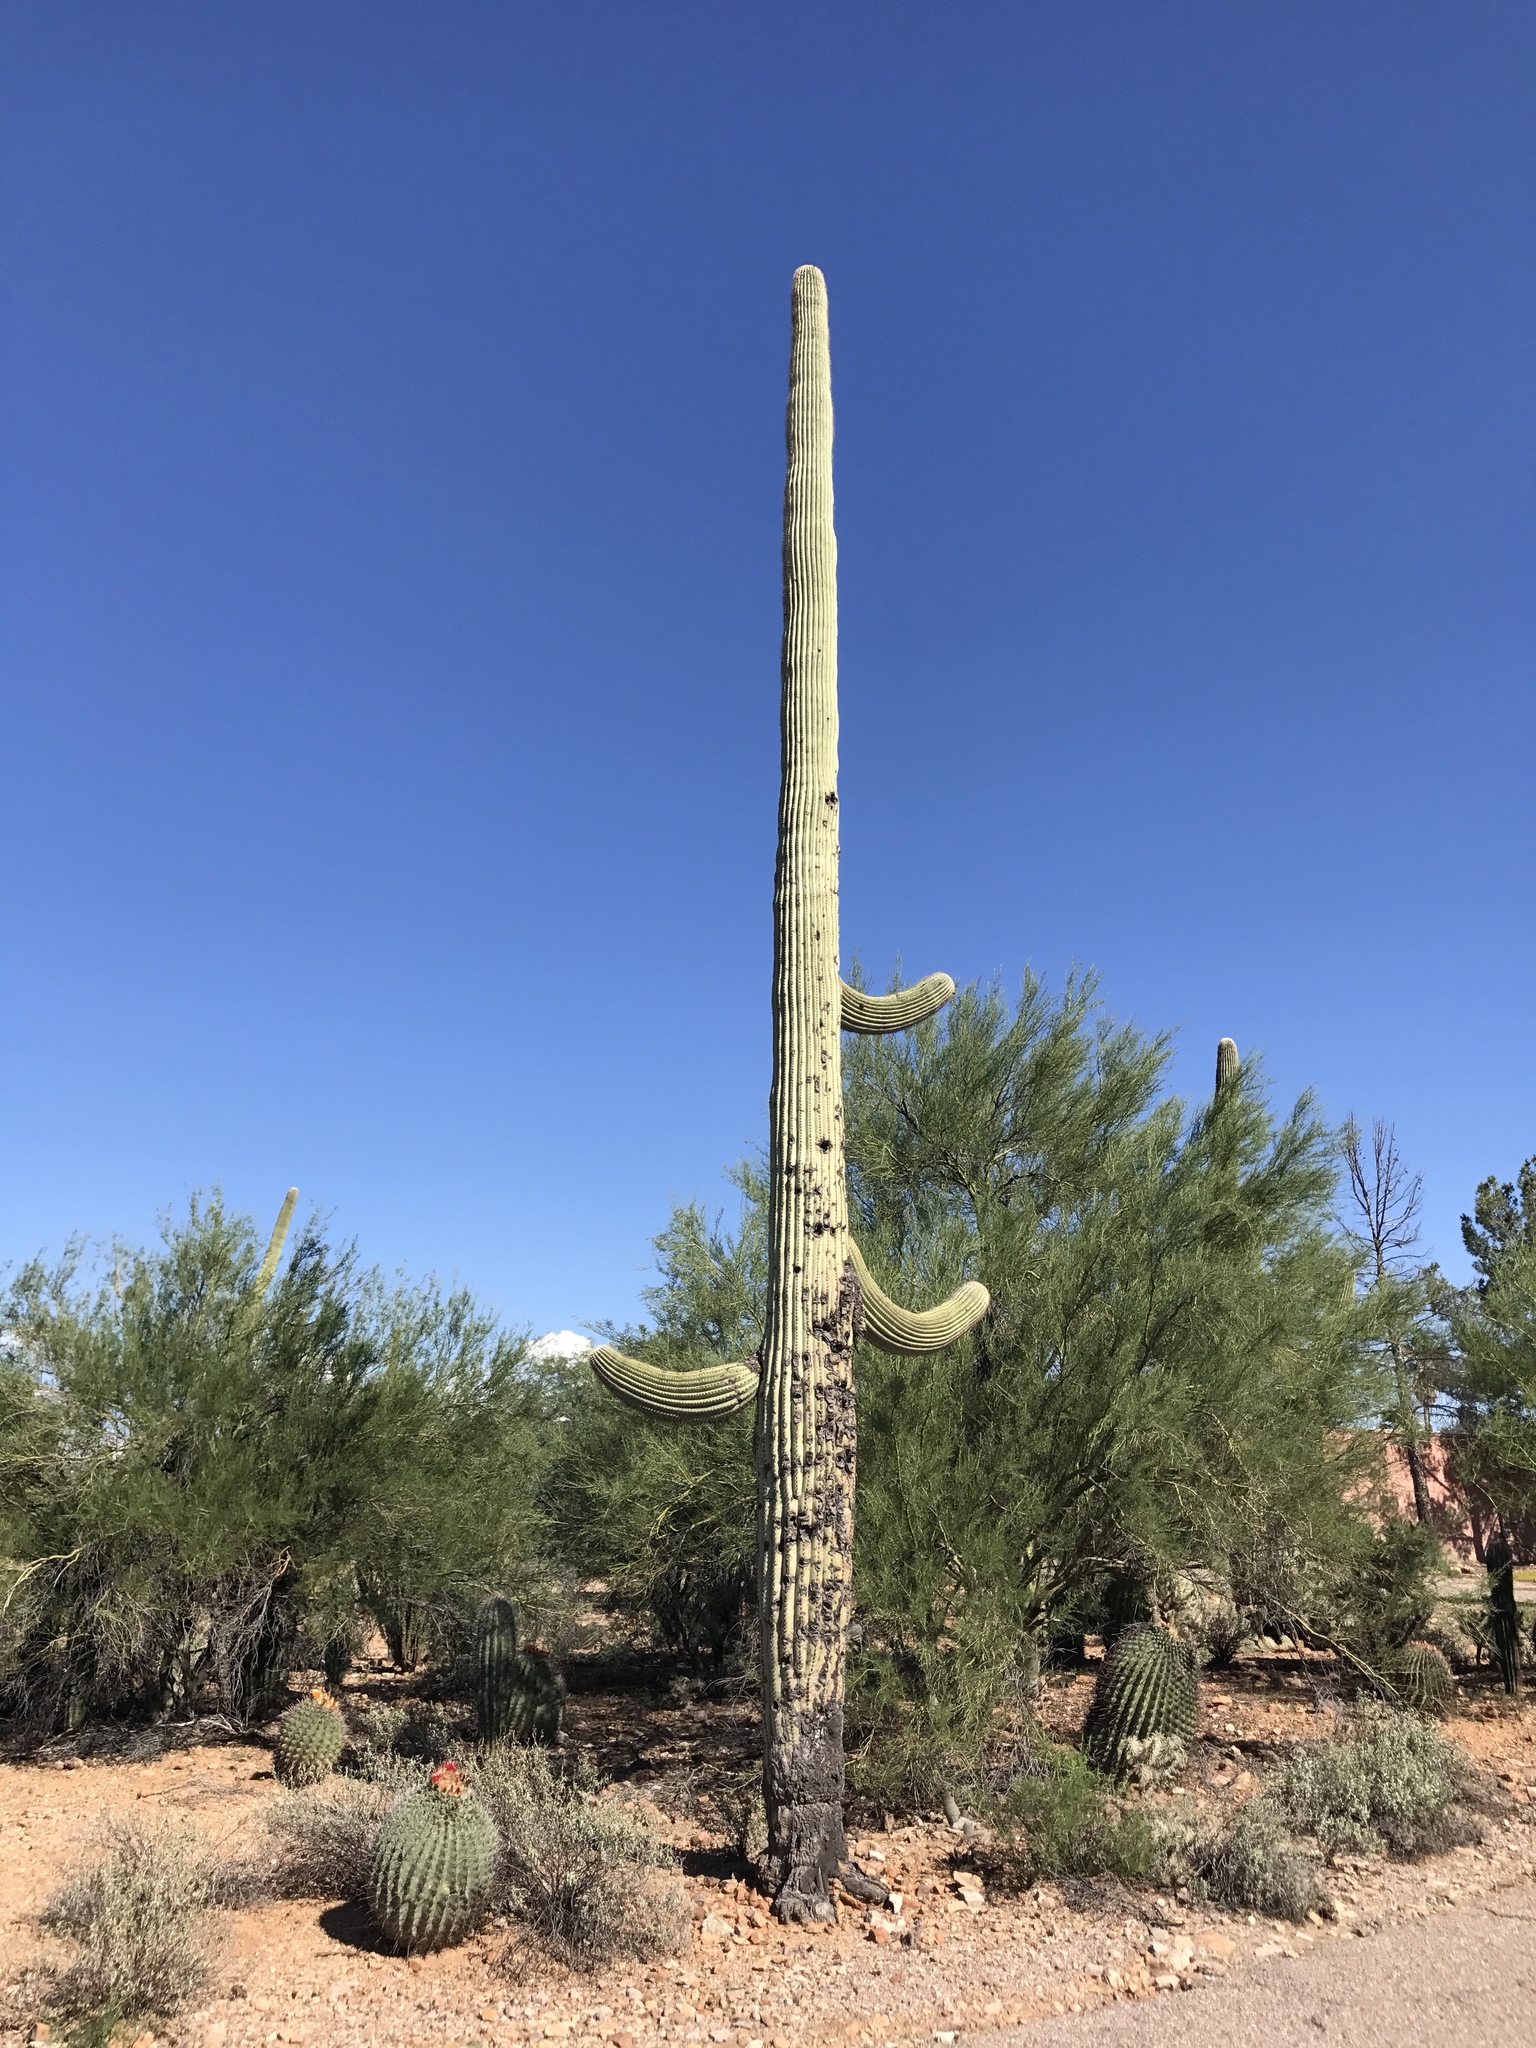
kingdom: Plantae
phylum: Tracheophyta
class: Magnoliopsida
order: Caryophyllales
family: Cactaceae
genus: Carnegiea
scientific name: Carnegiea gigantea
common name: Saguaro
